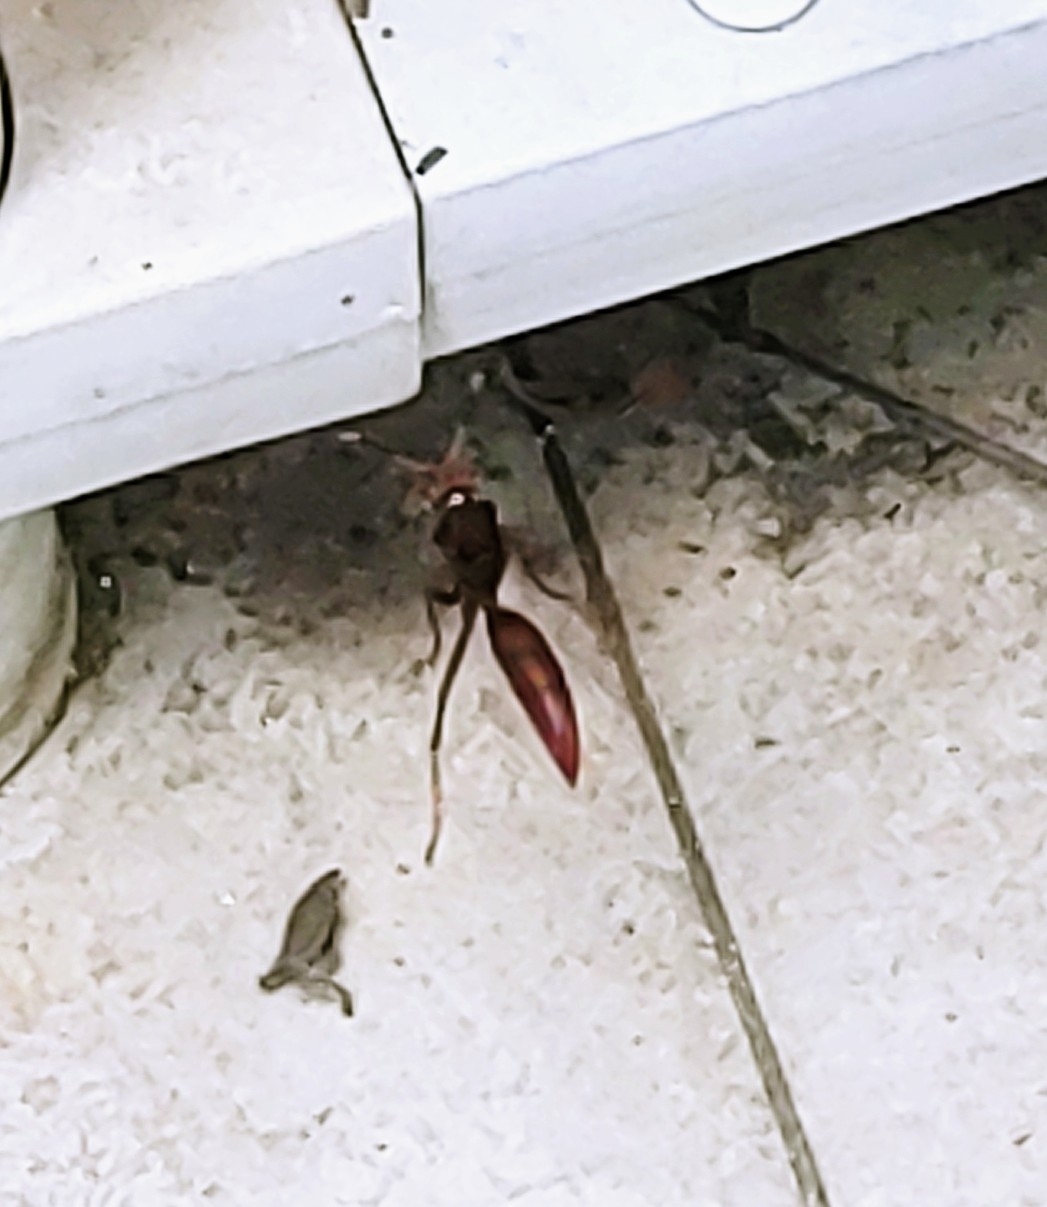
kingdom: Animalia
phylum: Arthropoda
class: Insecta
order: Hymenoptera
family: Eumenidae
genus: Polistes
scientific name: Polistes lanio
